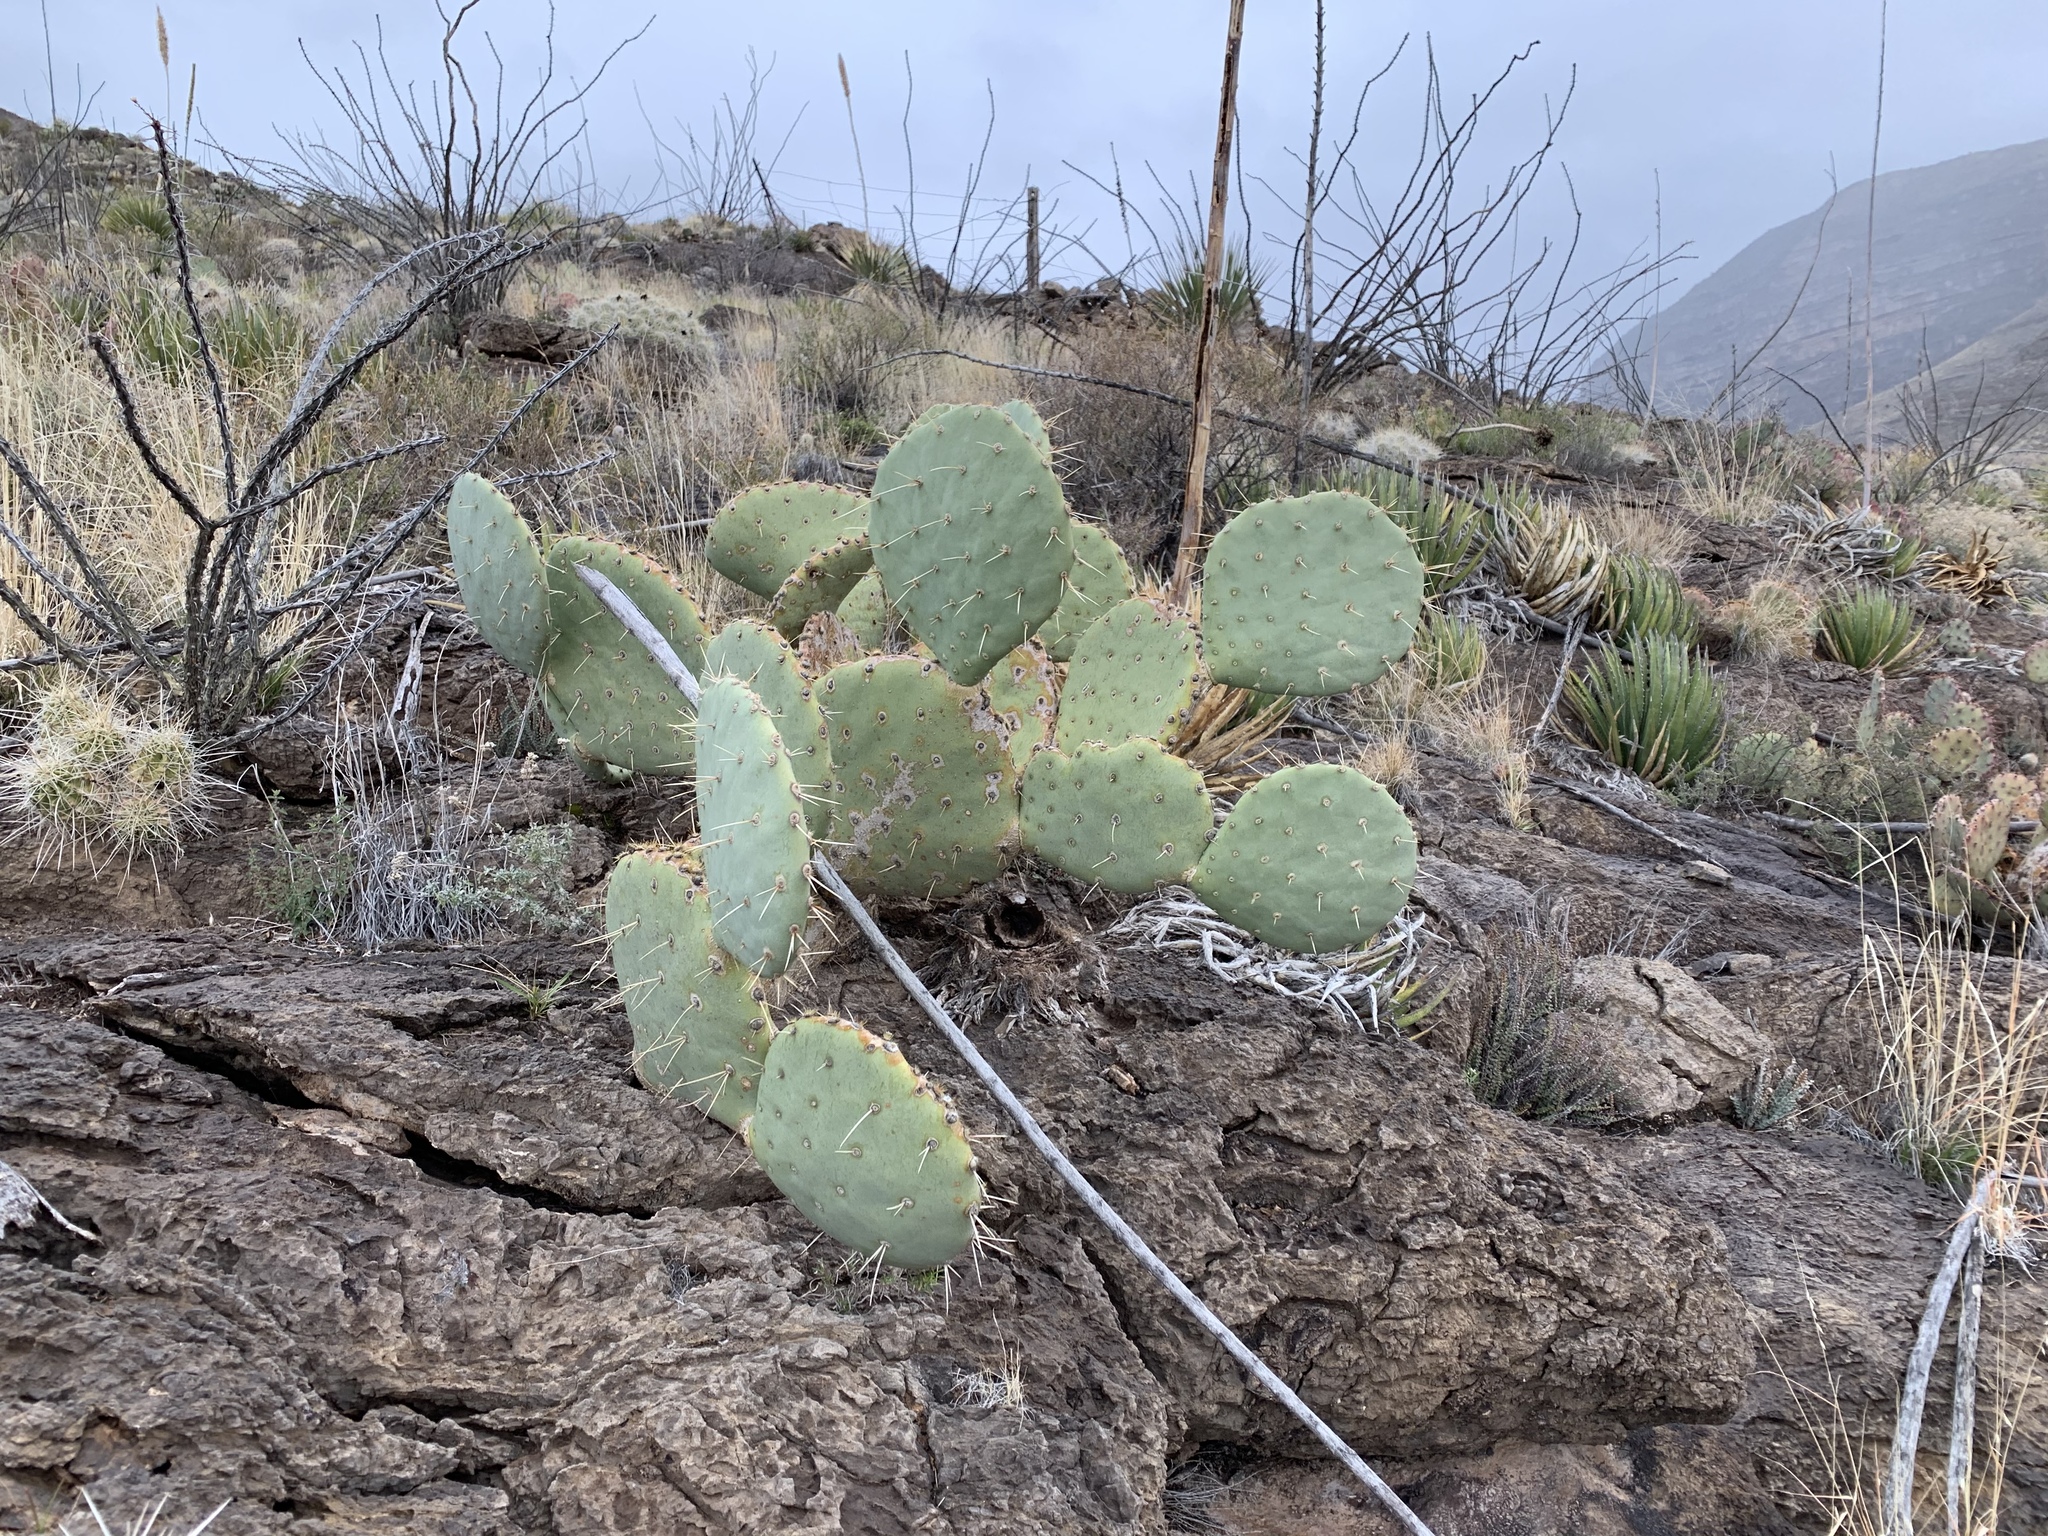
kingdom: Plantae
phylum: Tracheophyta
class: Magnoliopsida
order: Caryophyllales
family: Cactaceae
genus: Opuntia
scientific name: Opuntia engelmannii
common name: Cactus-apple
